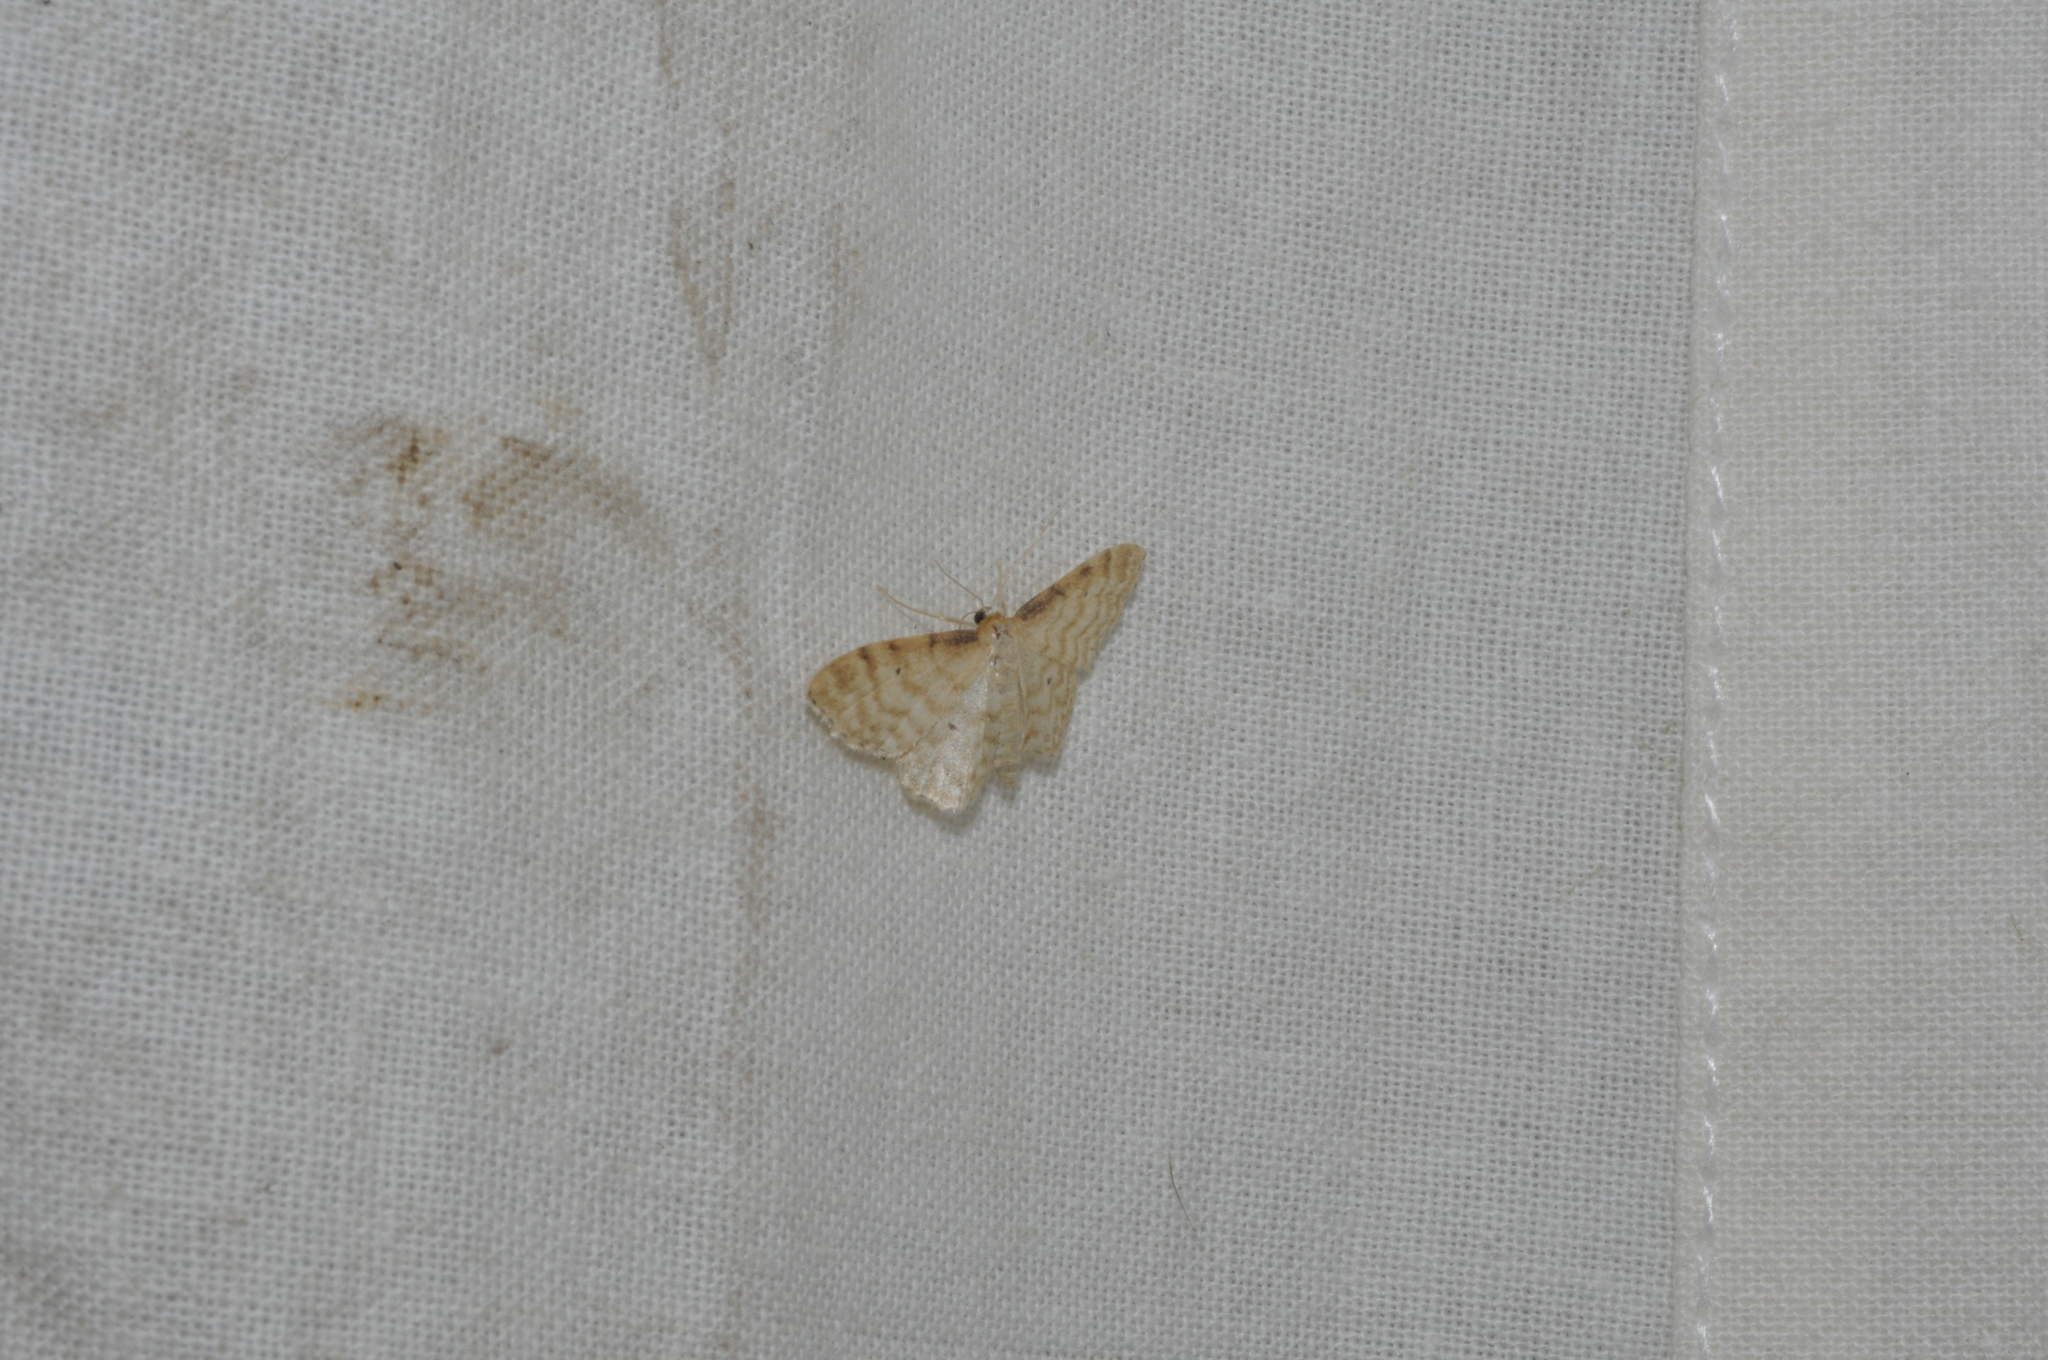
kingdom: Animalia
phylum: Arthropoda
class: Insecta
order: Lepidoptera
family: Geometridae
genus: Idaea
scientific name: Idaea fuscovenosa
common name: Dwarf cream wave
